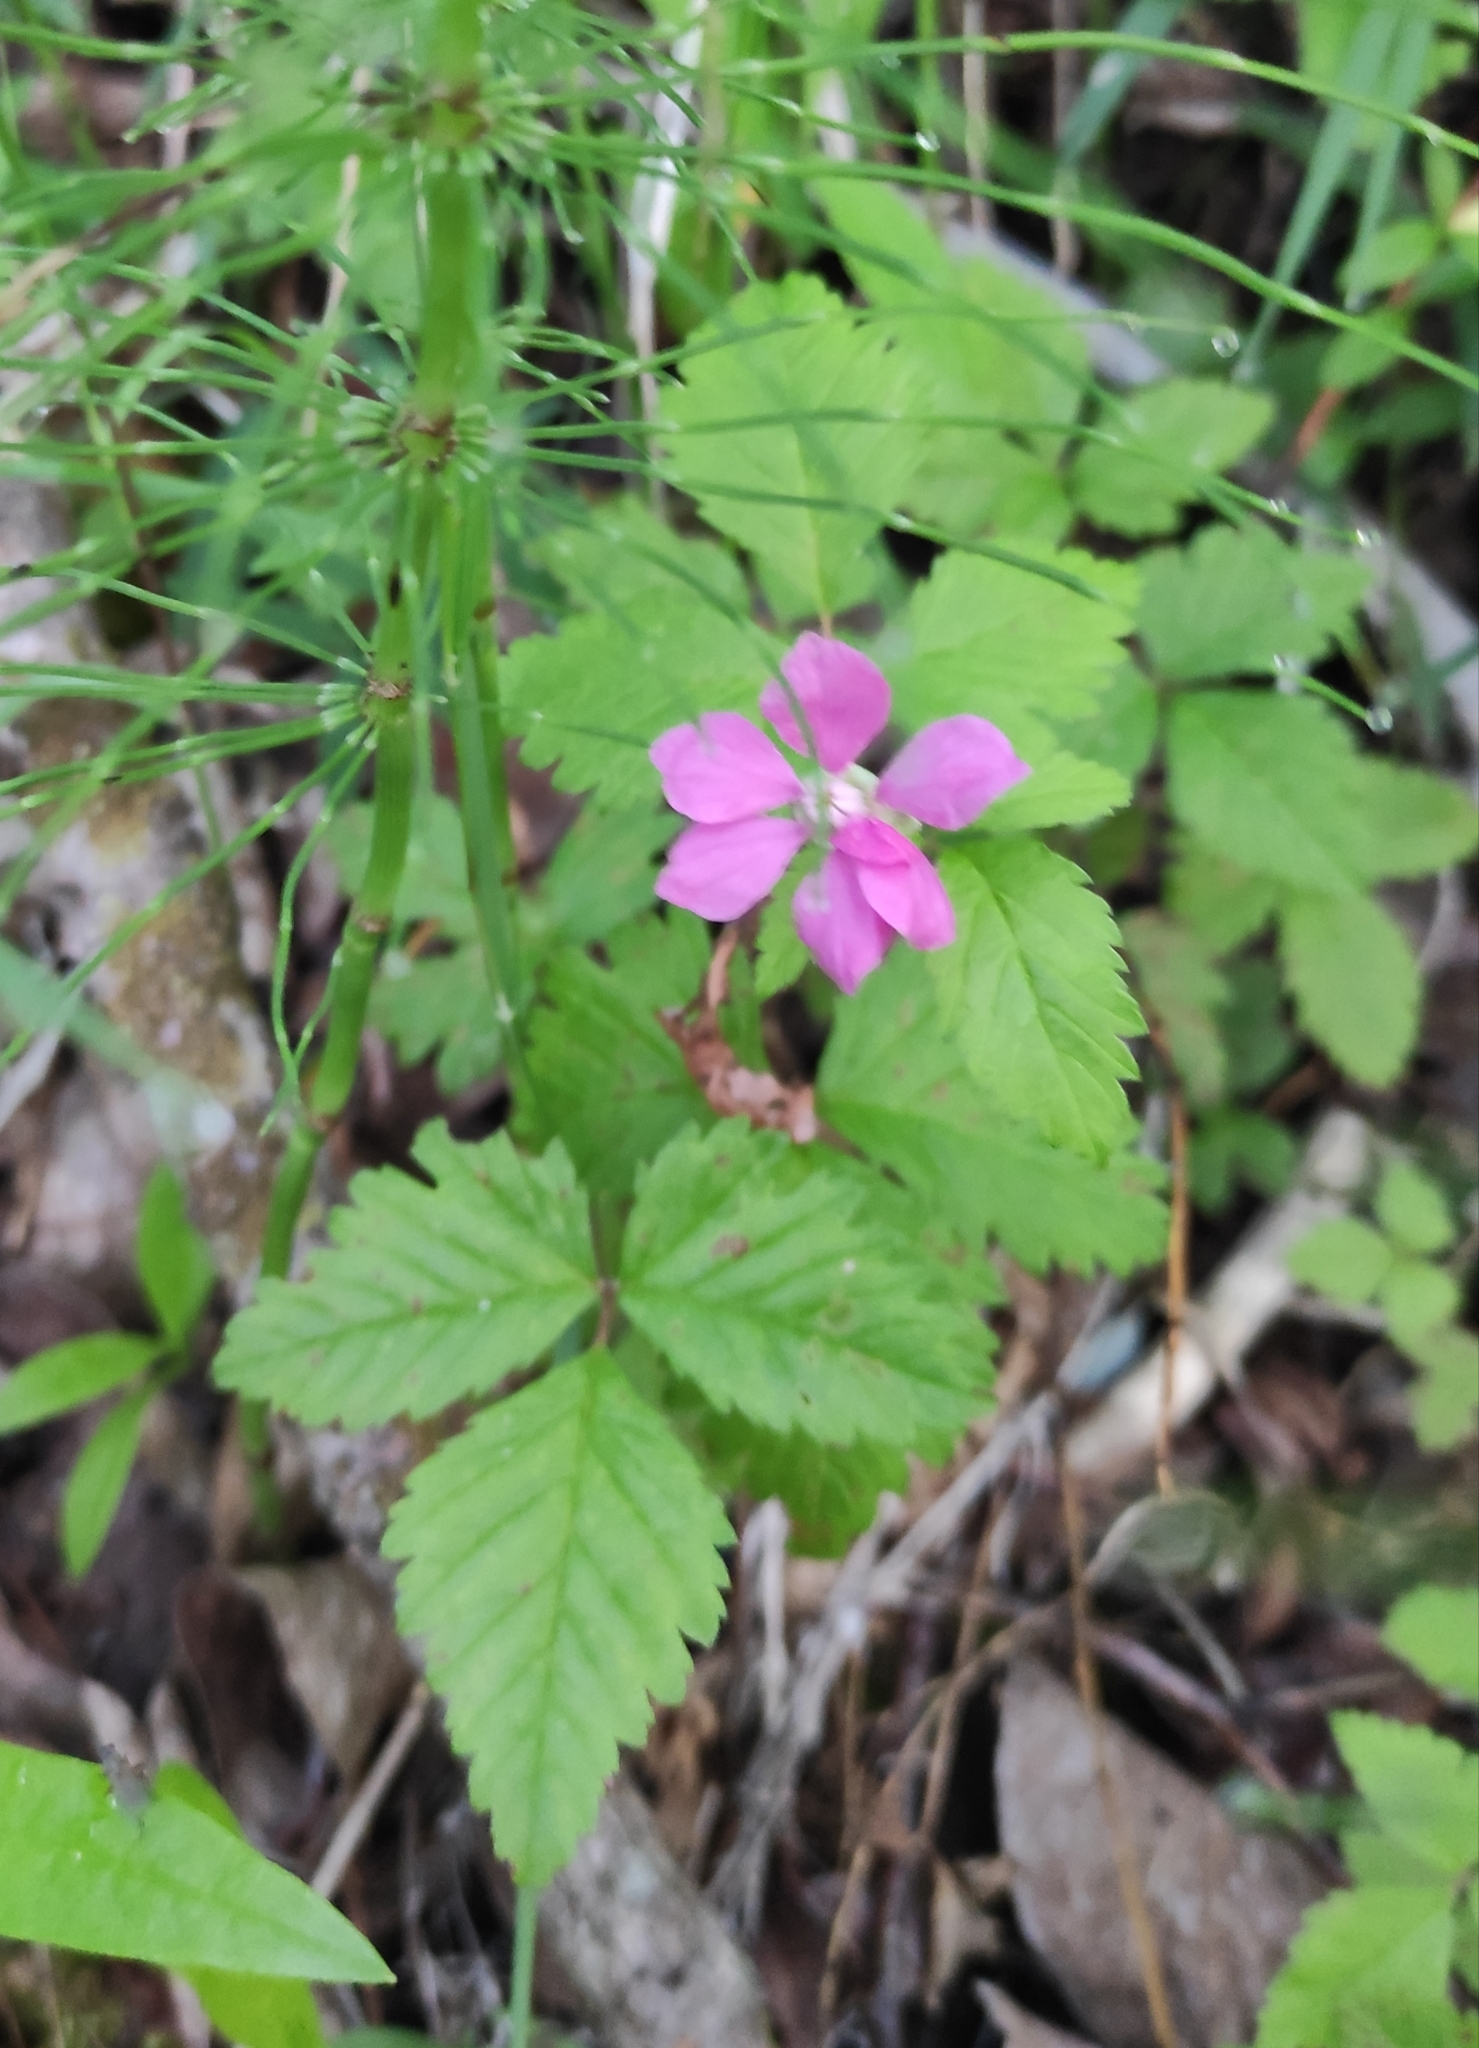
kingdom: Plantae
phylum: Tracheophyta
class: Magnoliopsida
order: Rosales
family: Rosaceae
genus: Rubus
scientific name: Rubus arcticus
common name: Arctic bramble
